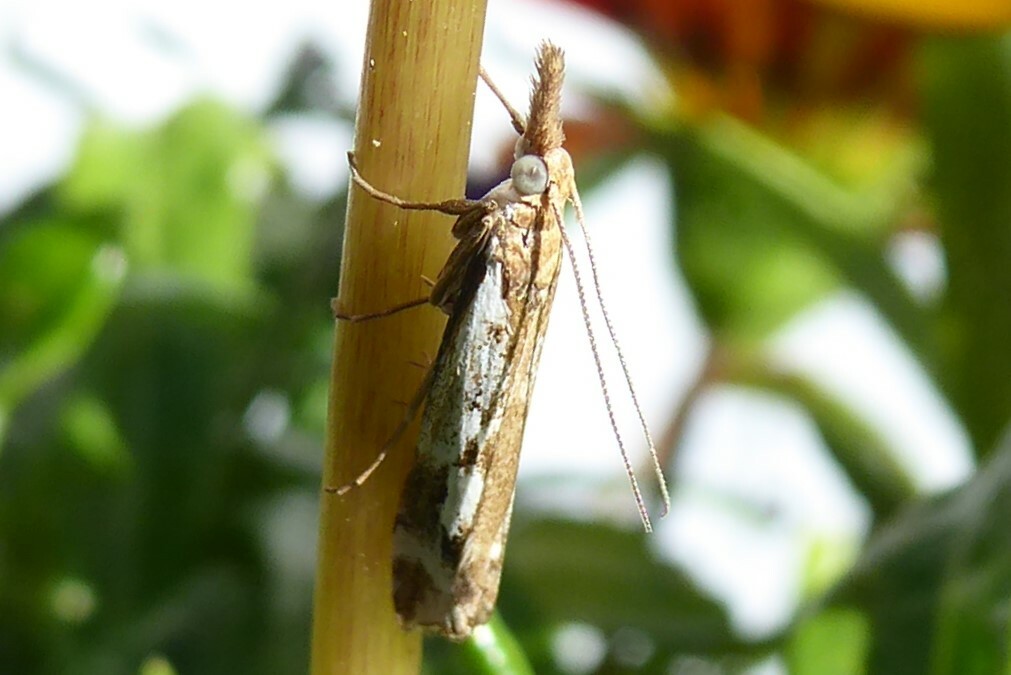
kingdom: Animalia
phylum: Arthropoda
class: Insecta
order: Lepidoptera
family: Crambidae
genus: Orocrambus
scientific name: Orocrambus vulgaris
